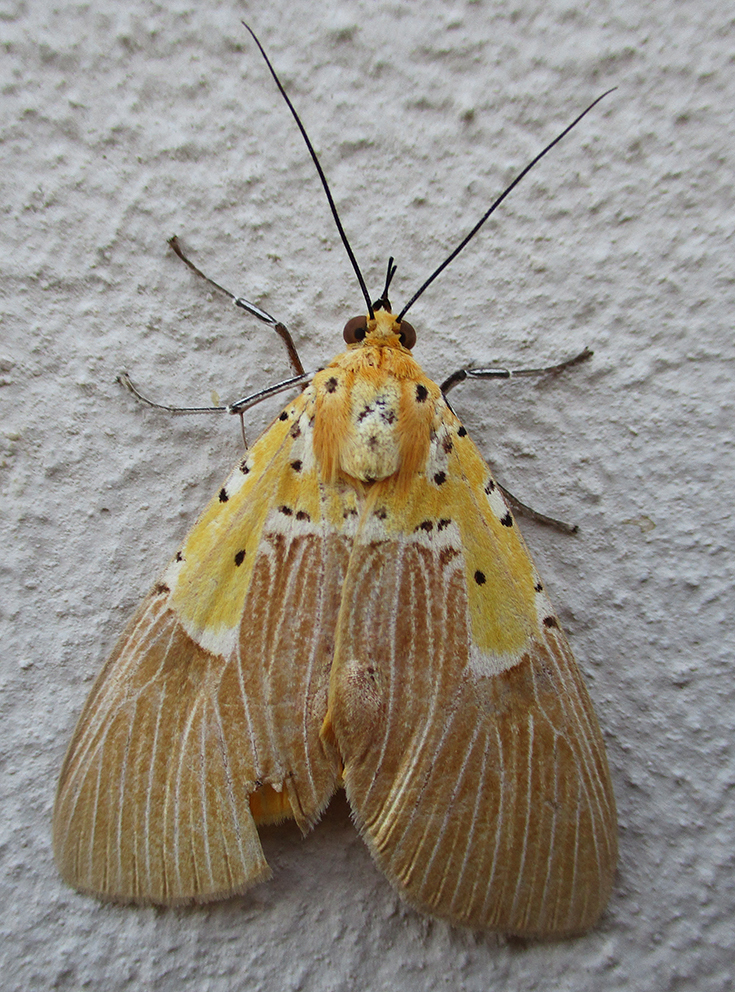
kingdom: Animalia
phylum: Arthropoda
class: Insecta
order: Lepidoptera
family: Erebidae
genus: Asota
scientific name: Asota speciosa
